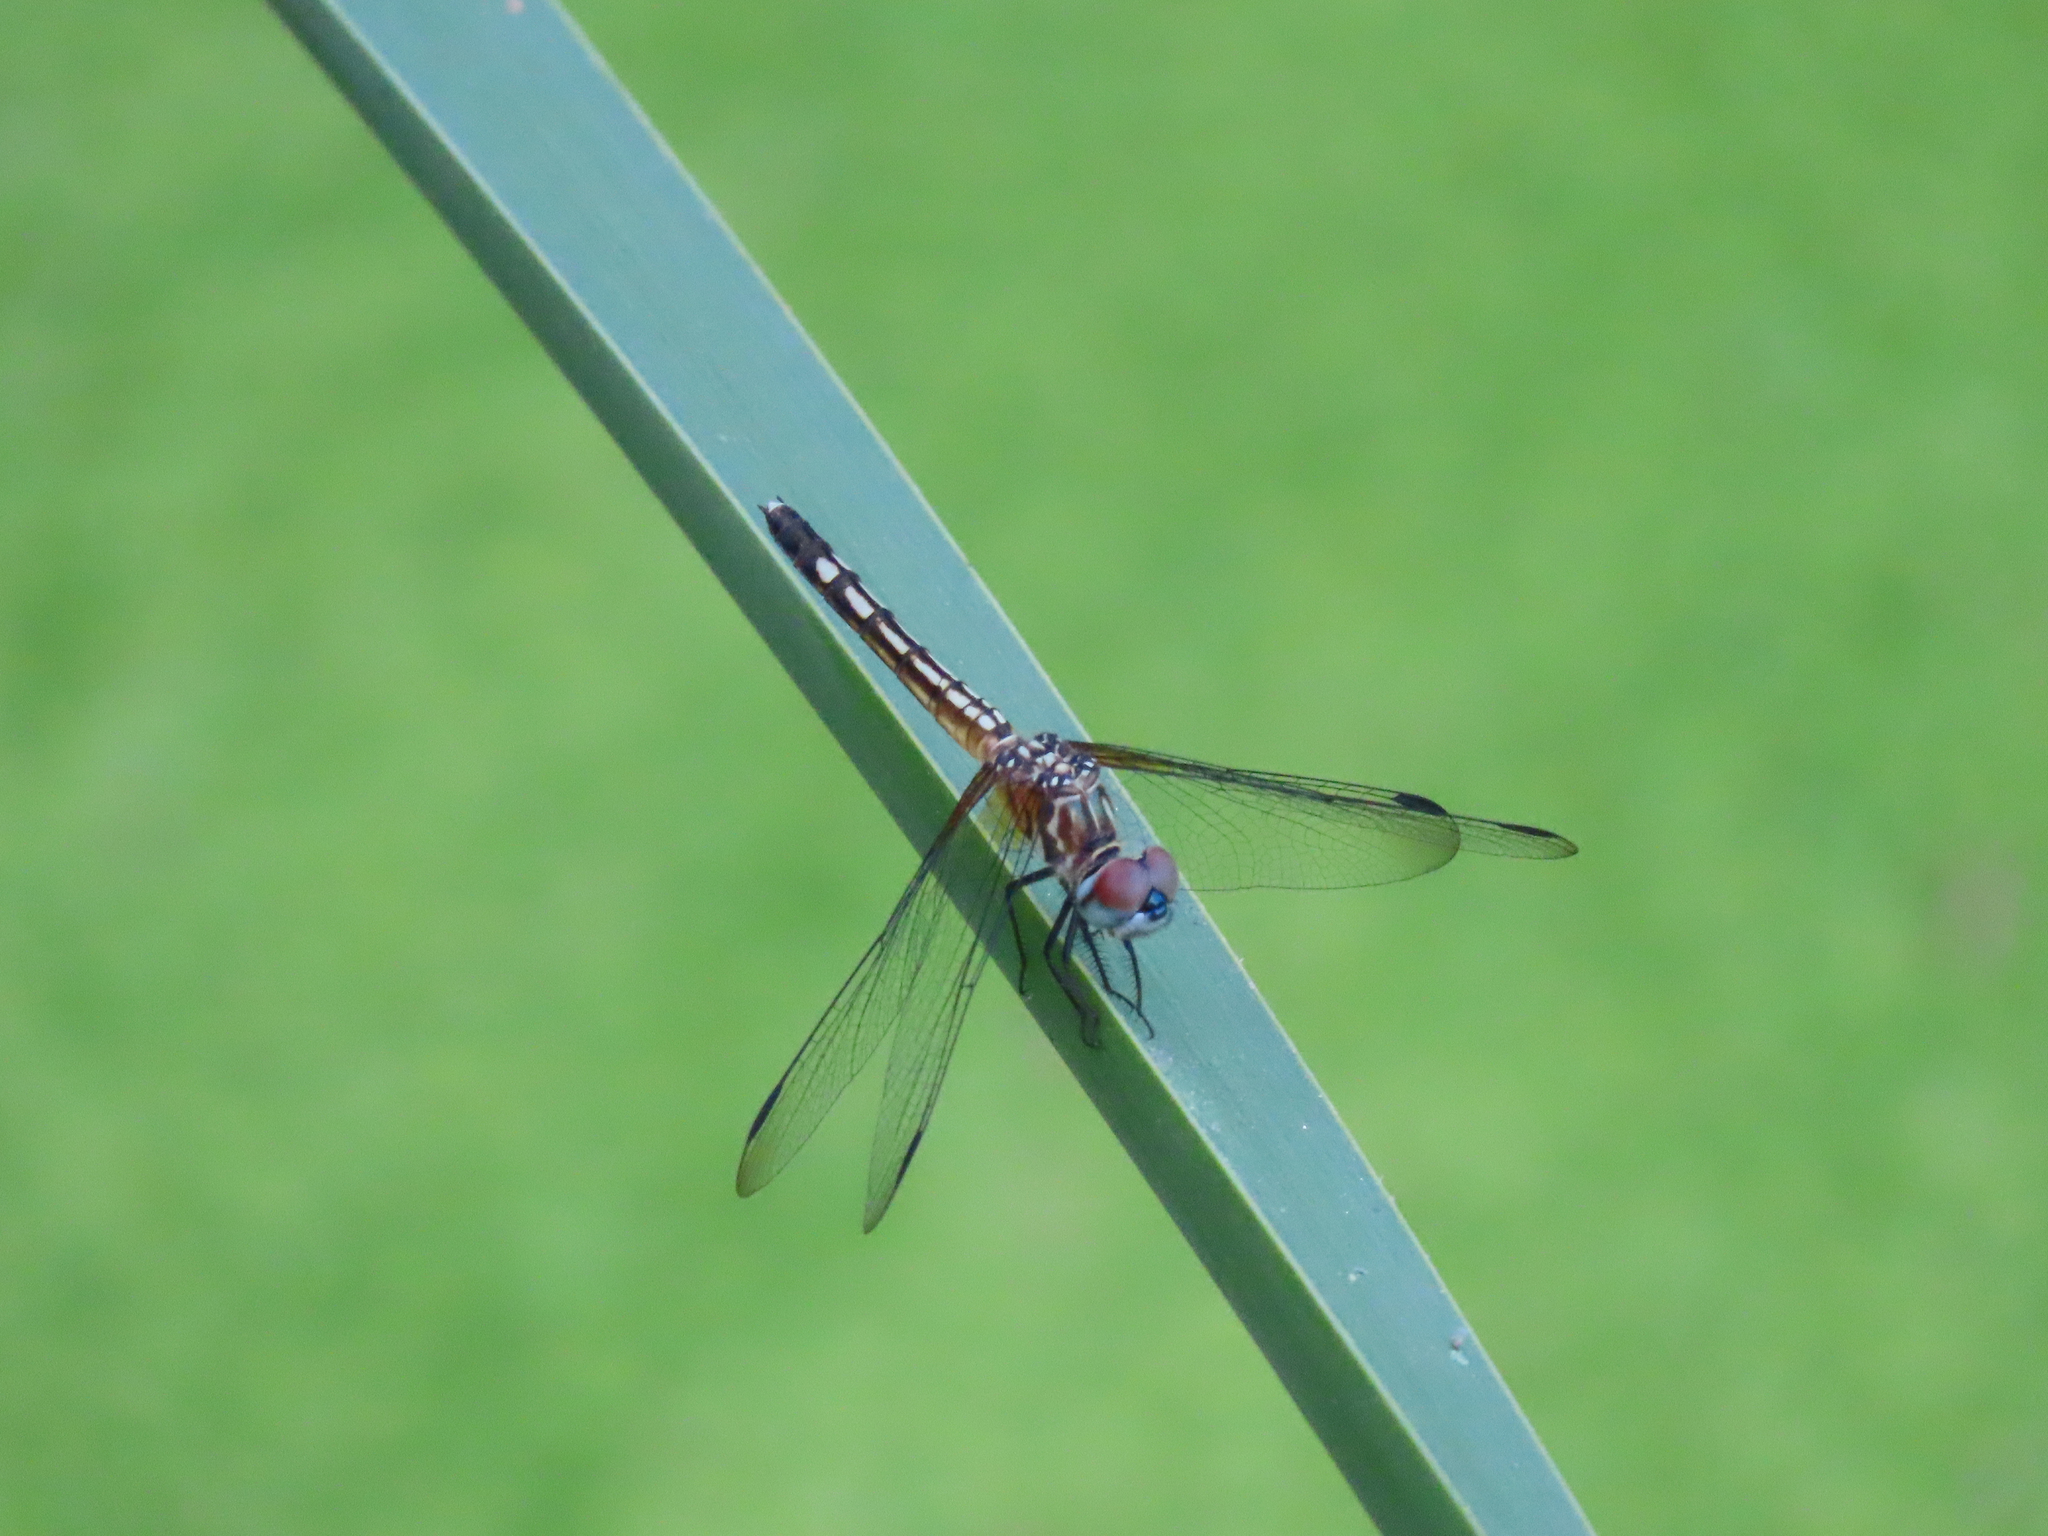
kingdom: Animalia
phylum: Arthropoda
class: Insecta
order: Odonata
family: Libellulidae
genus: Pachydiplax
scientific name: Pachydiplax longipennis
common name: Blue dasher
